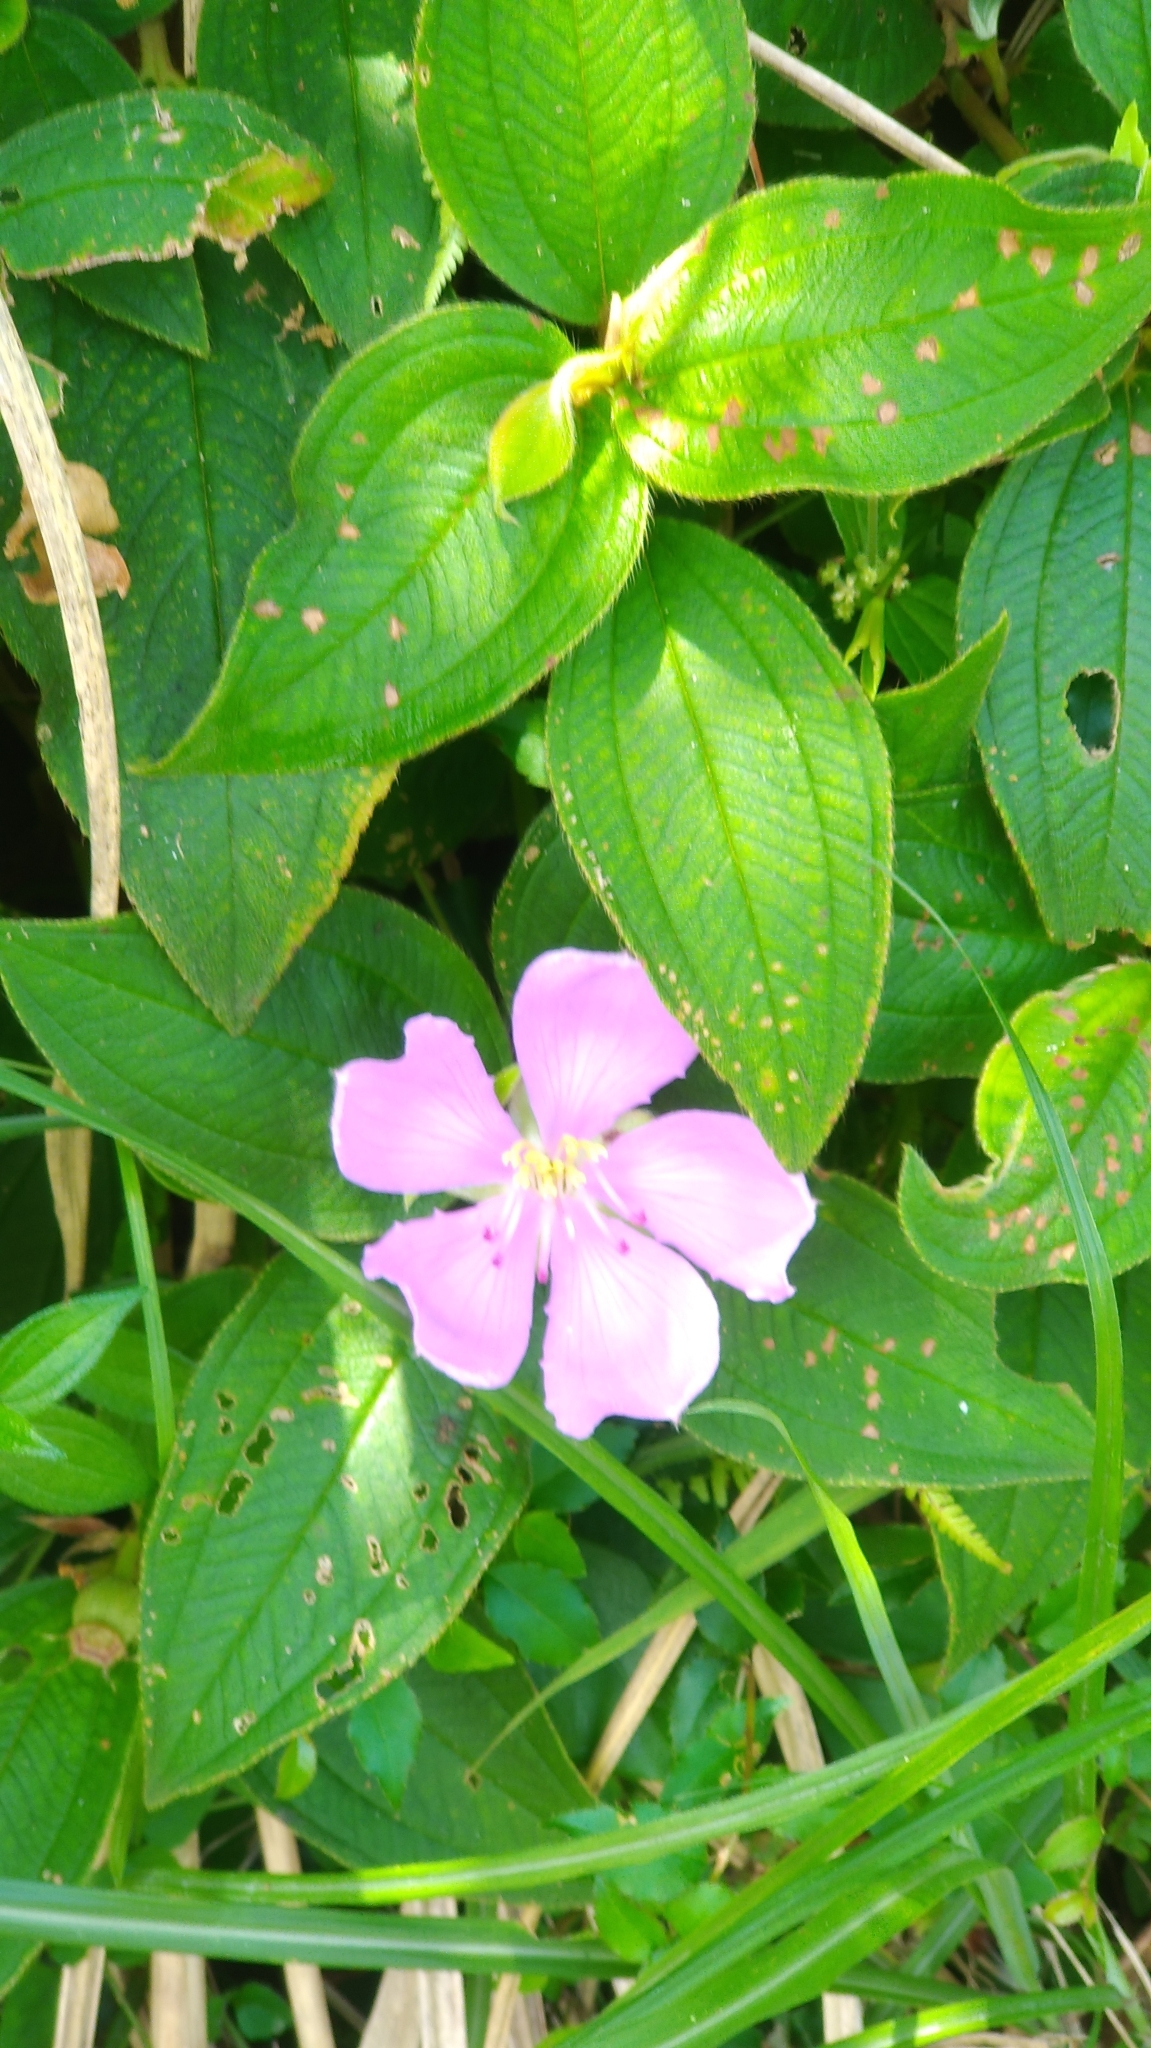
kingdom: Plantae
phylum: Tracheophyta
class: Magnoliopsida
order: Myrtales
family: Melastomataceae
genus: Melastoma
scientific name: Melastoma malabathricum
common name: Indian-rhododendron
